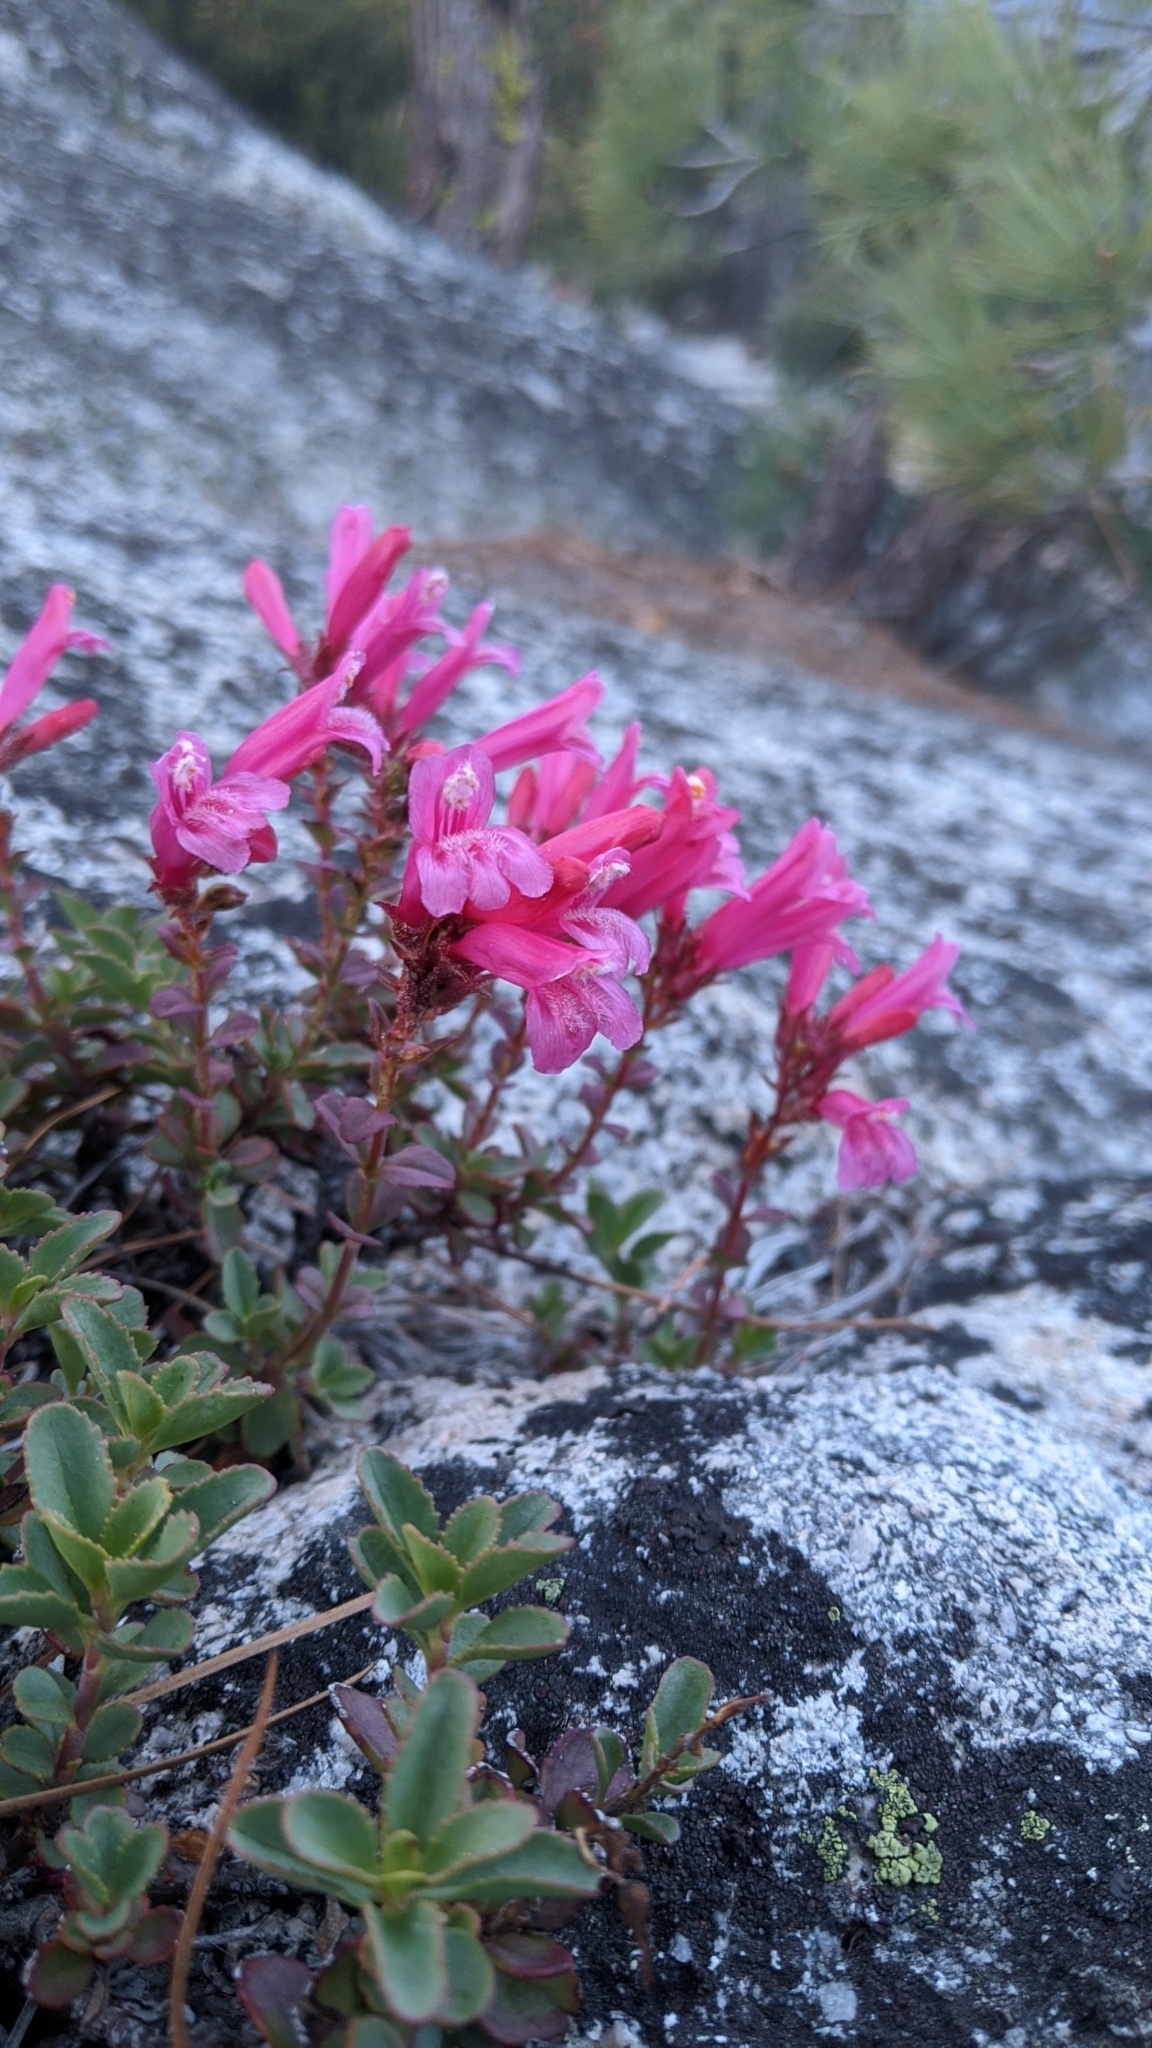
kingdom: Plantae
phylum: Tracheophyta
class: Magnoliopsida
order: Lamiales
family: Plantaginaceae
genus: Penstemon
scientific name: Penstemon newberryi
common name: Mountain-pride
